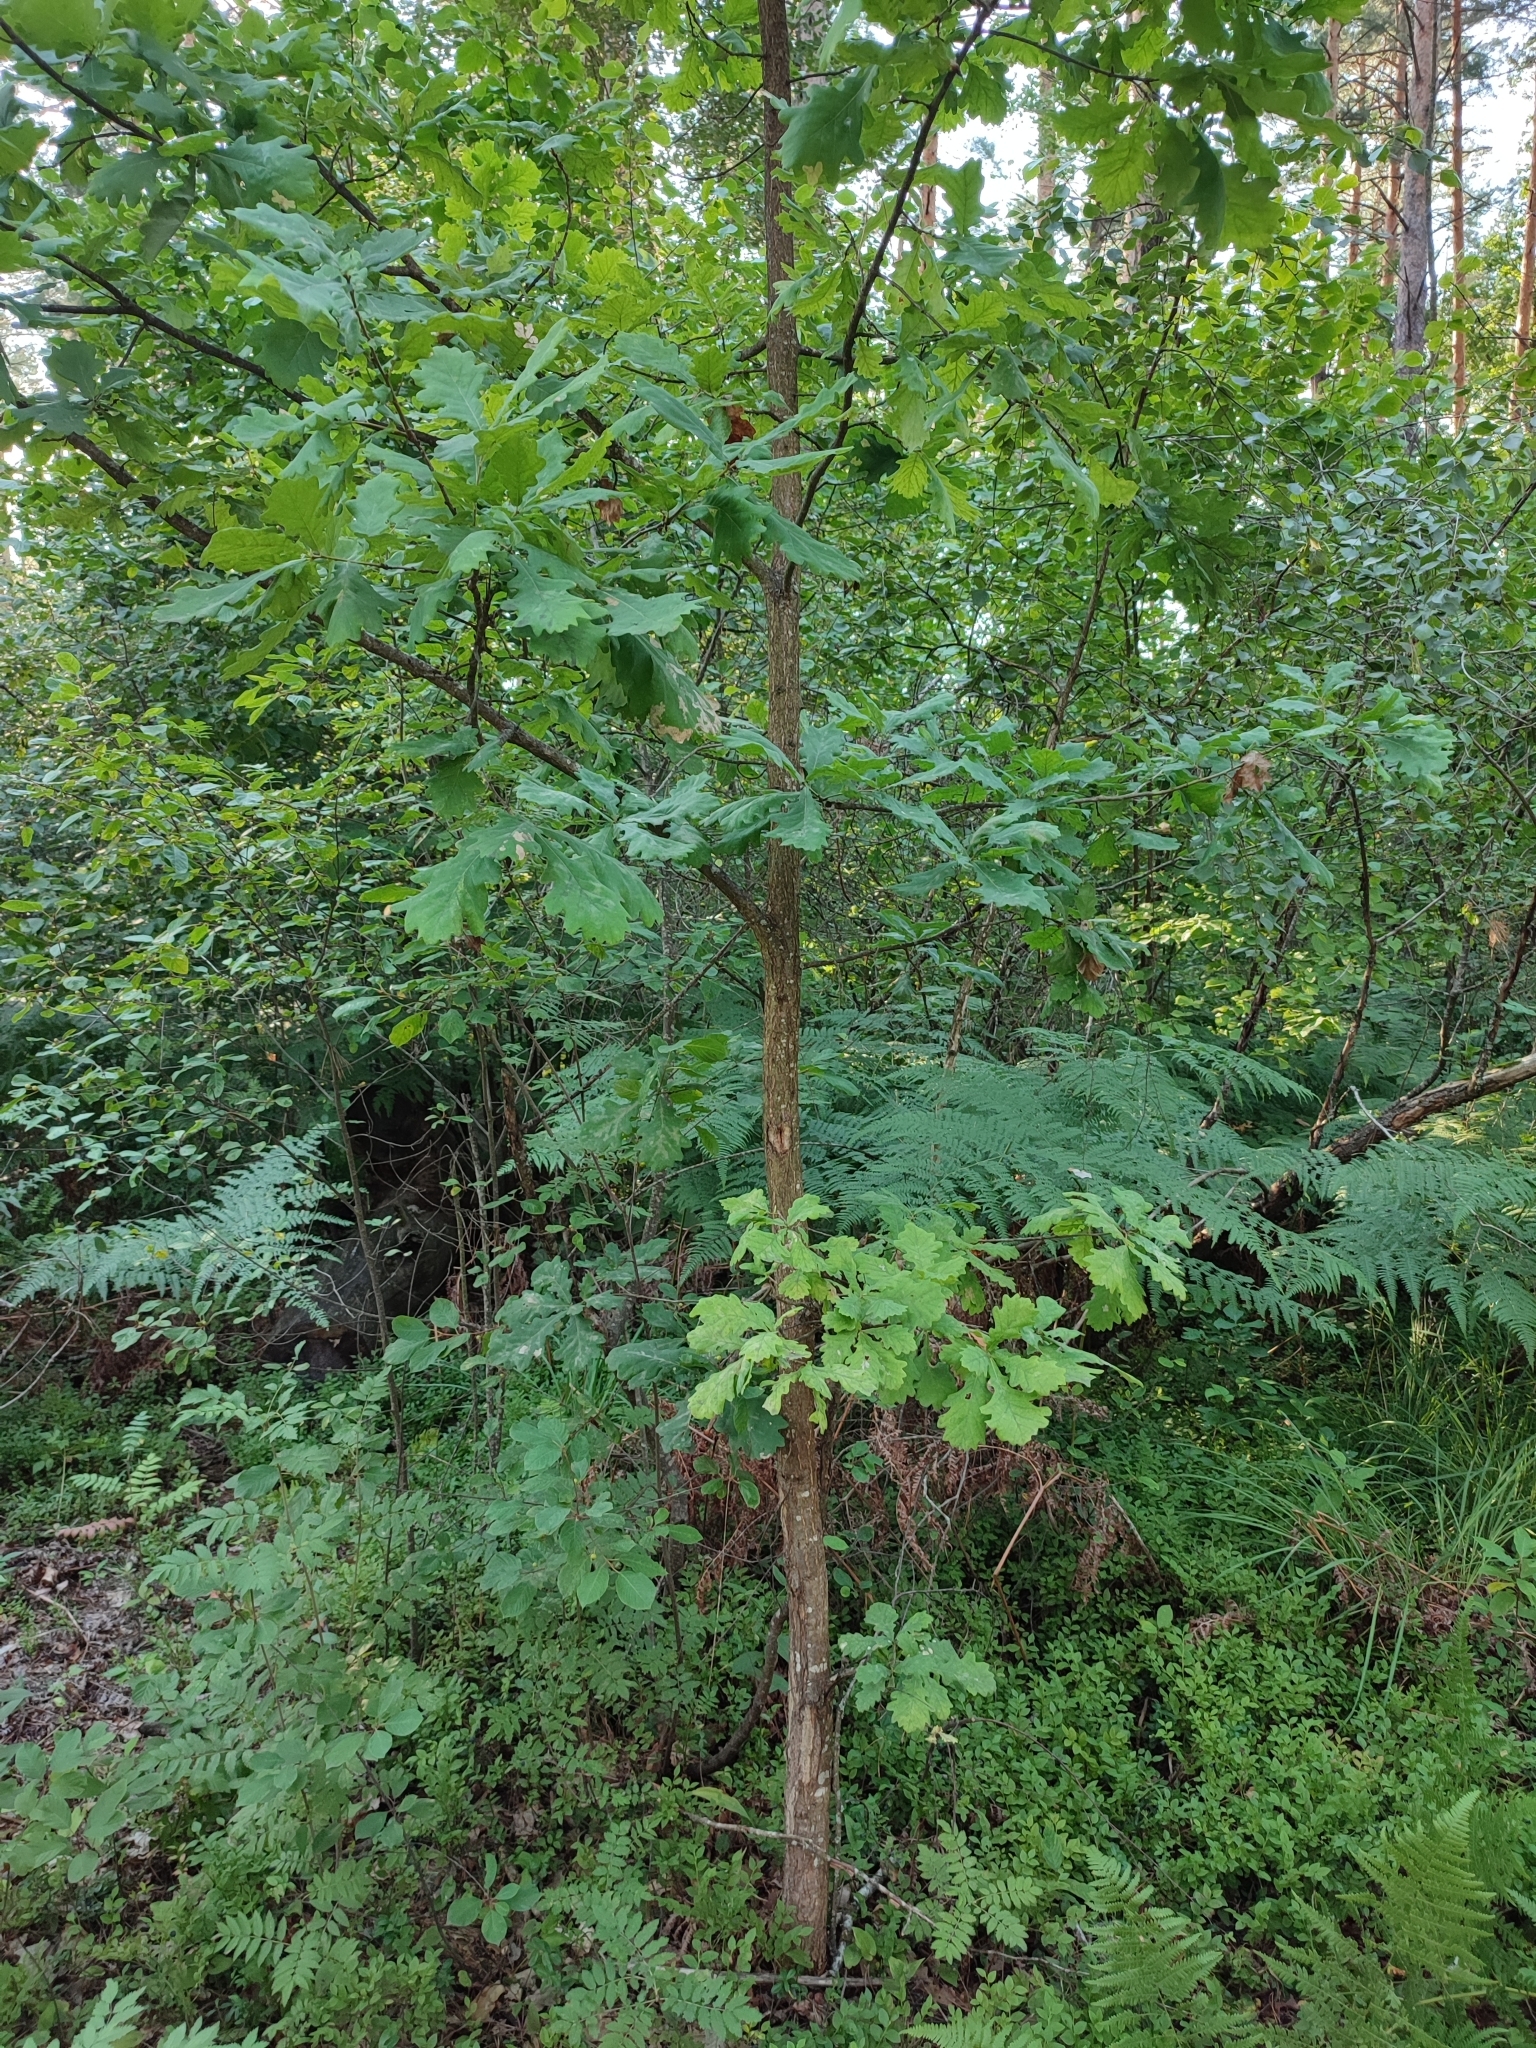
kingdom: Plantae
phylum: Tracheophyta
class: Magnoliopsida
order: Fagales
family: Fagaceae
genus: Quercus
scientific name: Quercus robur
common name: Pedunculate oak
